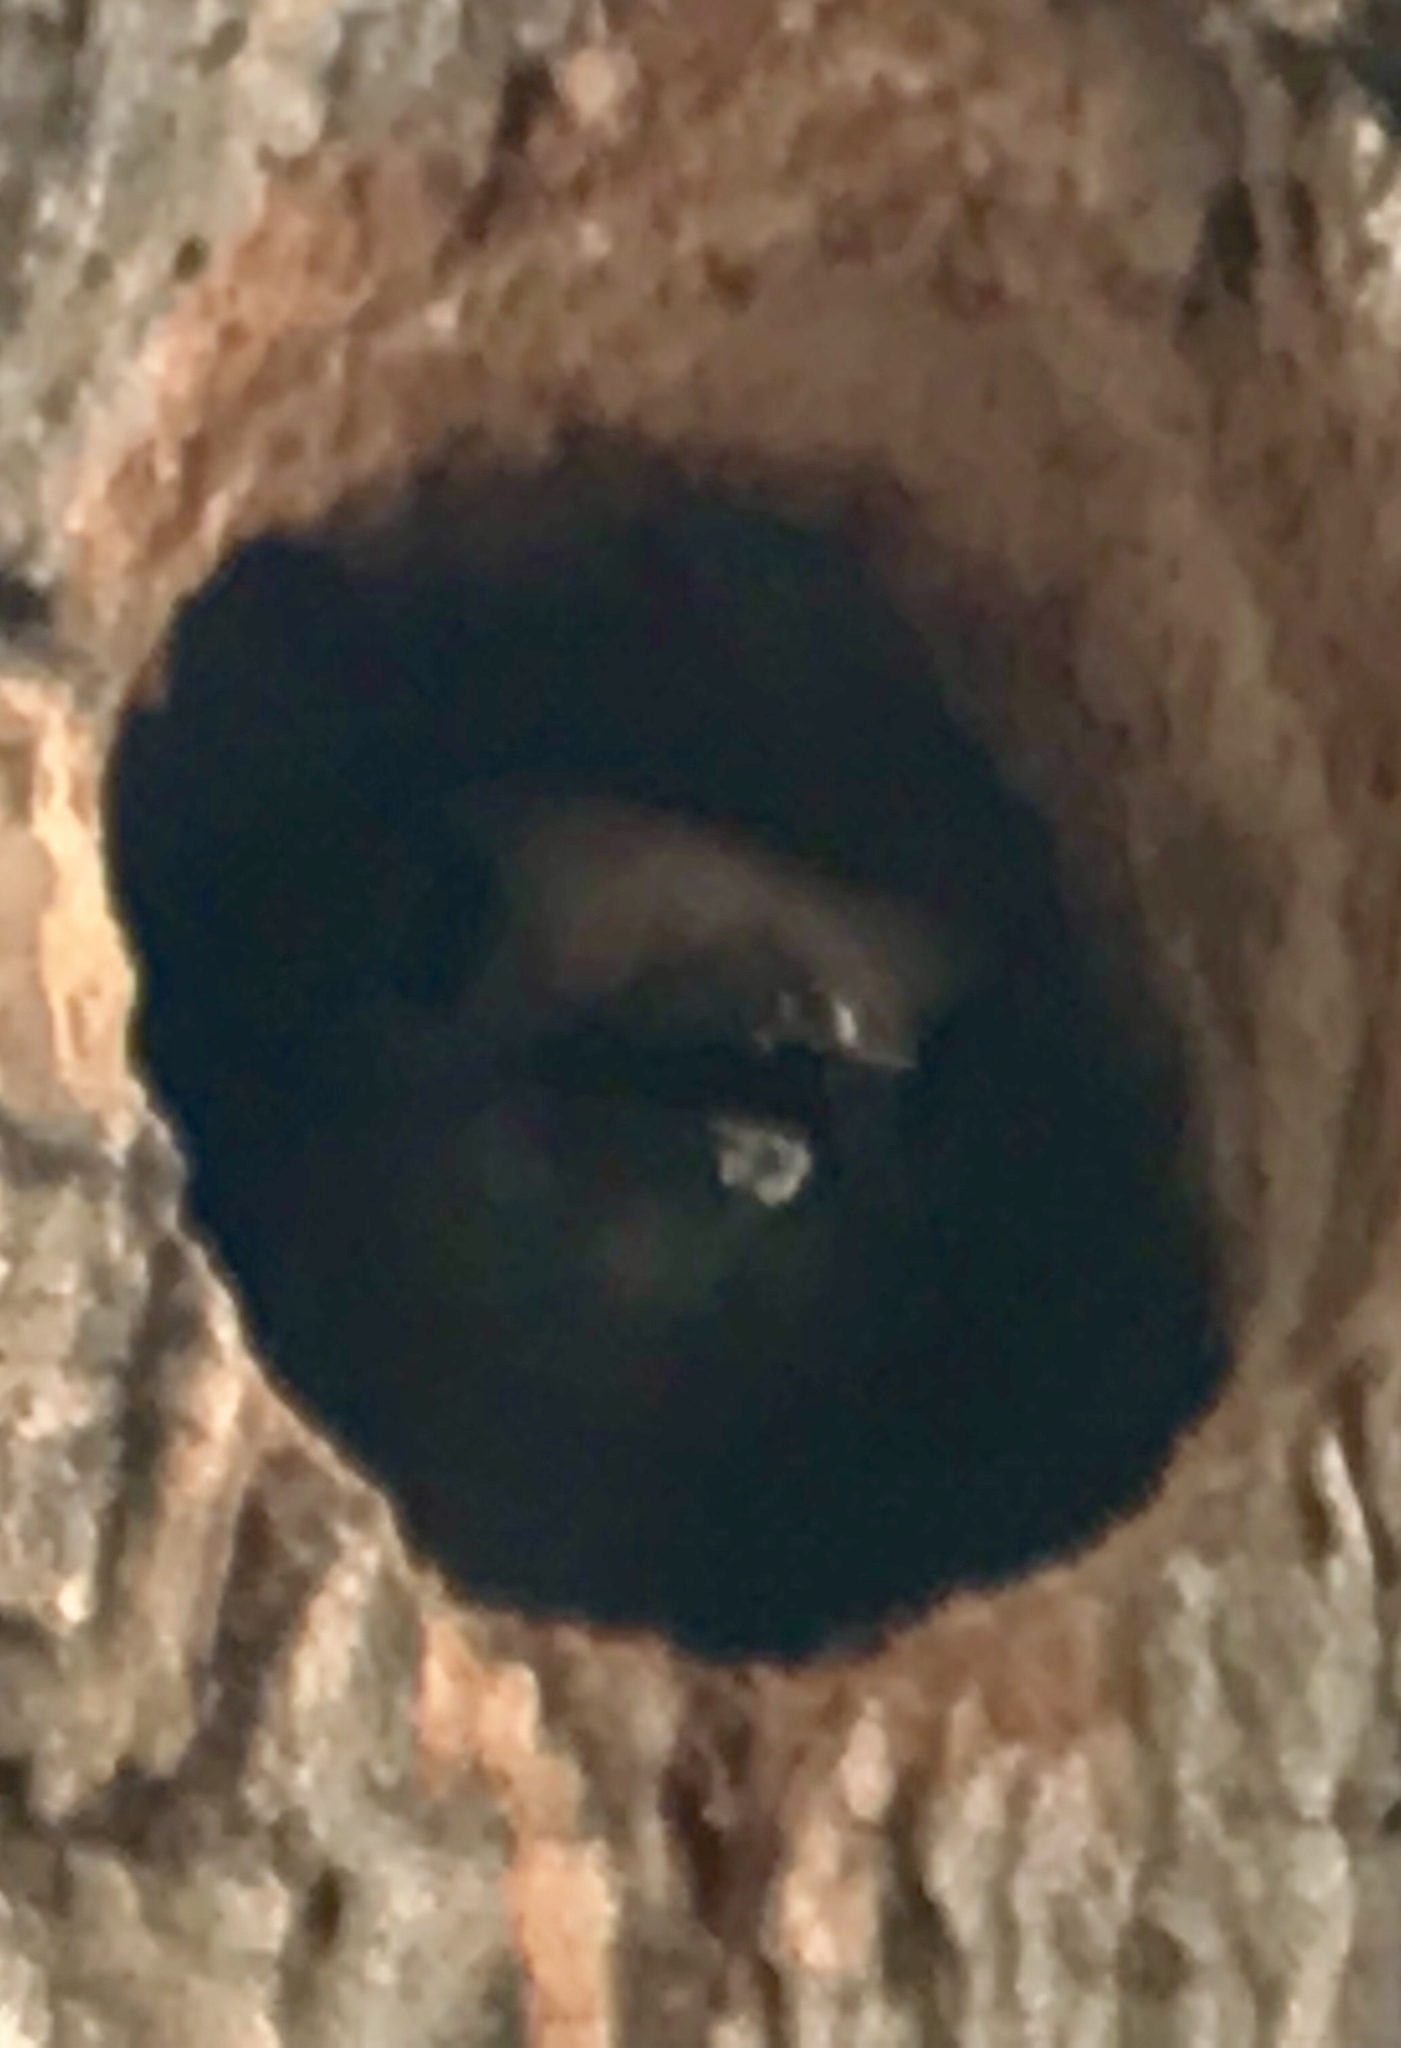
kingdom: Animalia
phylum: Chordata
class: Aves
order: Piciformes
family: Picidae
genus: Melanerpes
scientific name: Melanerpes uropygialis
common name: Gila woodpecker
